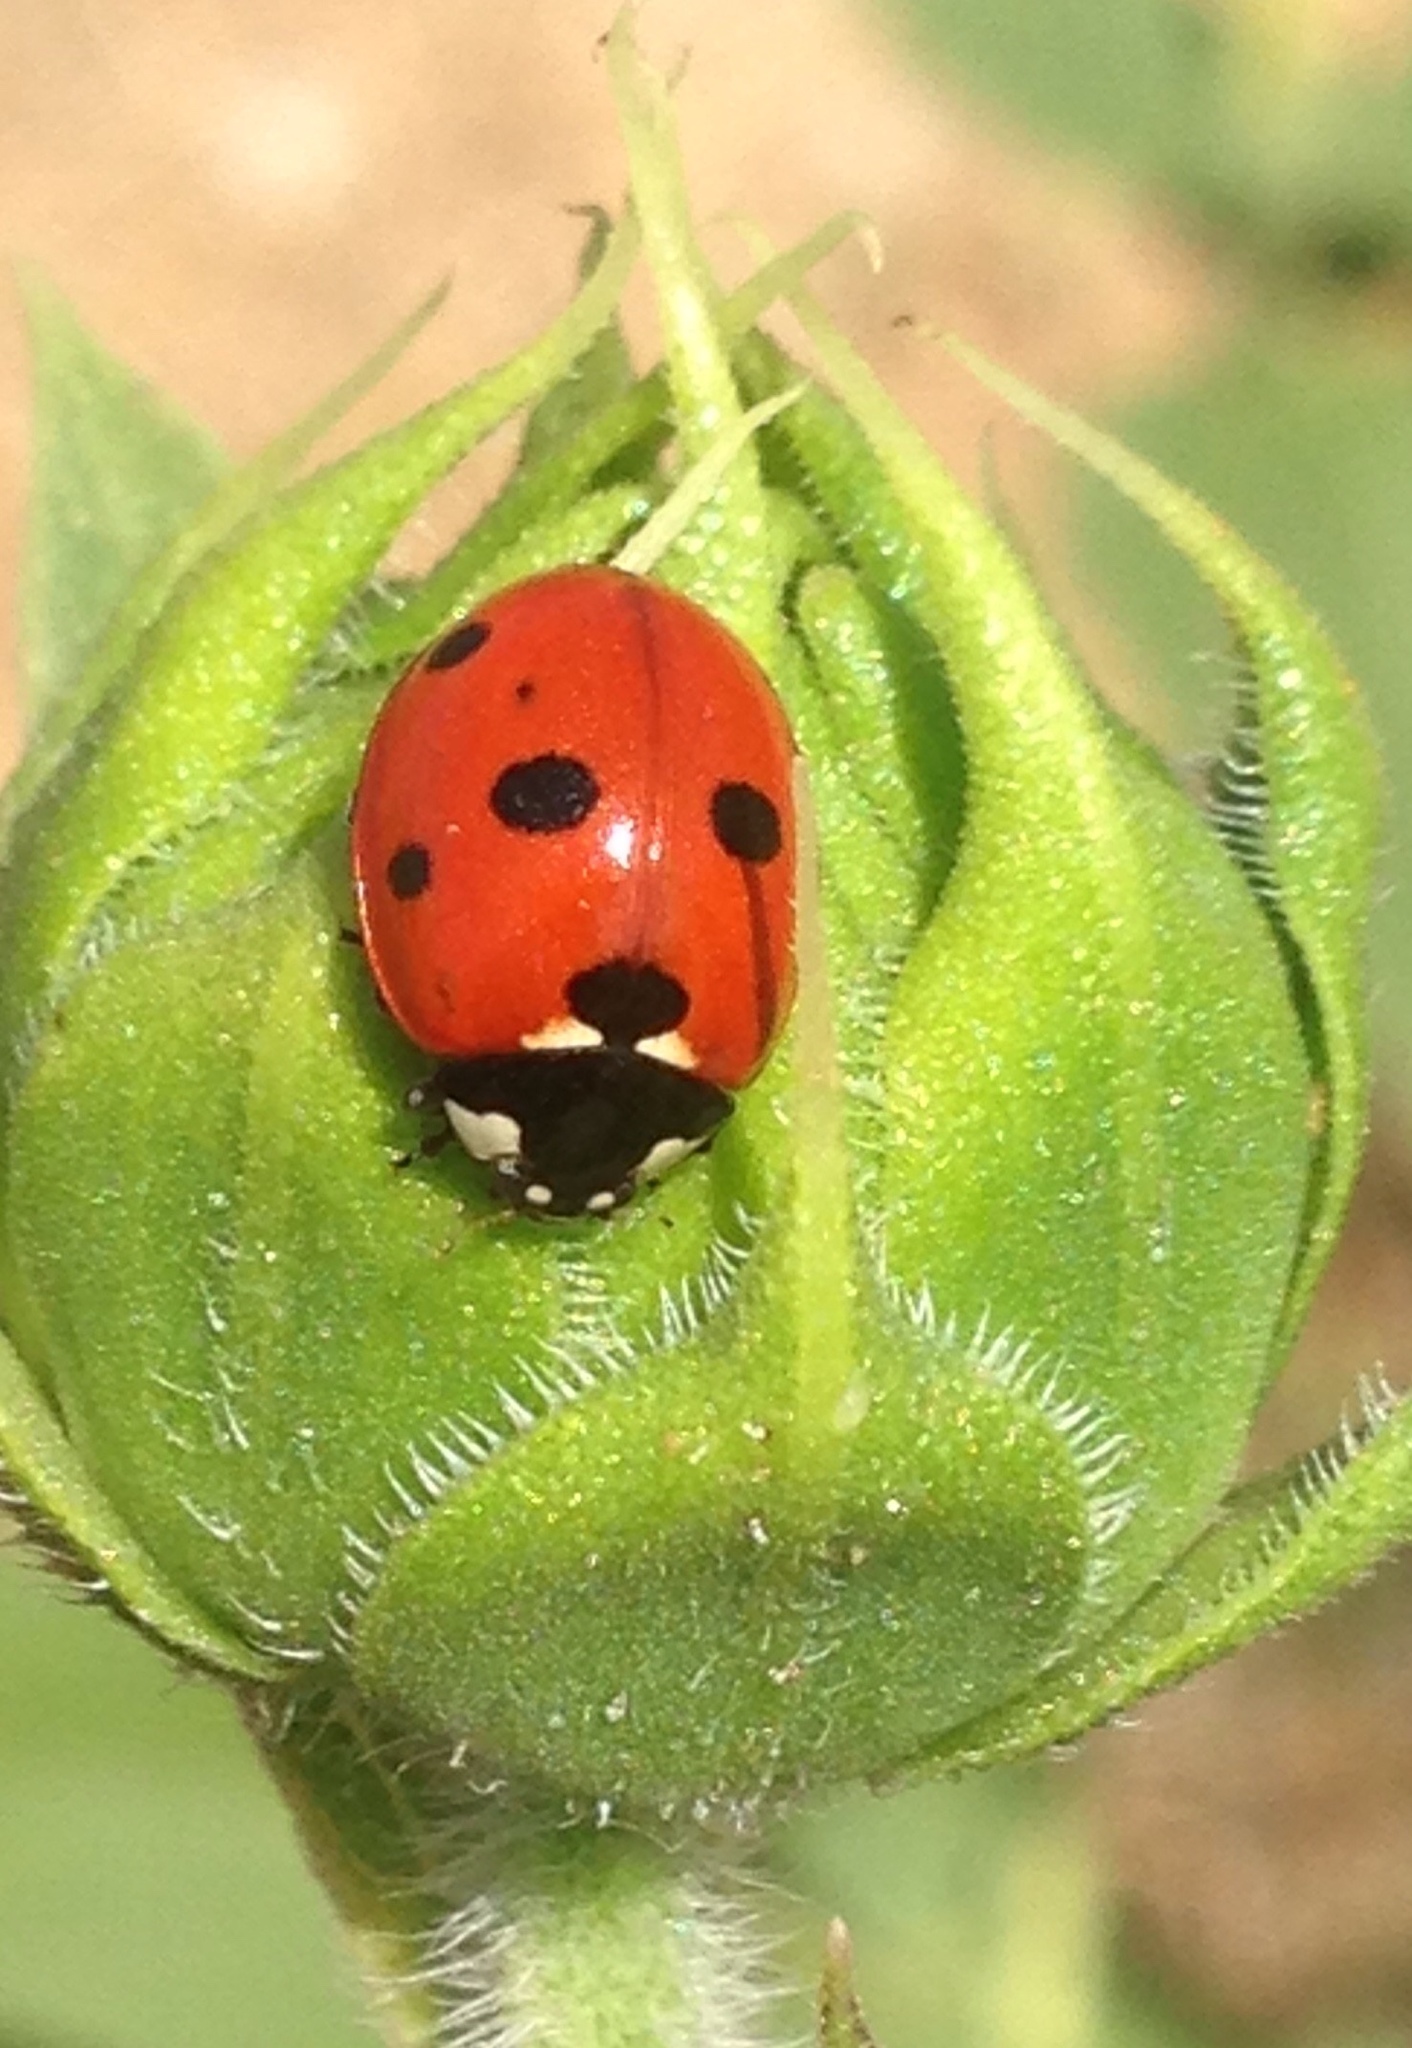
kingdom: Animalia
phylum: Arthropoda
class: Insecta
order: Coleoptera
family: Coccinellidae
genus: Coccinella
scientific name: Coccinella septempunctata
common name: Sevenspotted lady beetle
